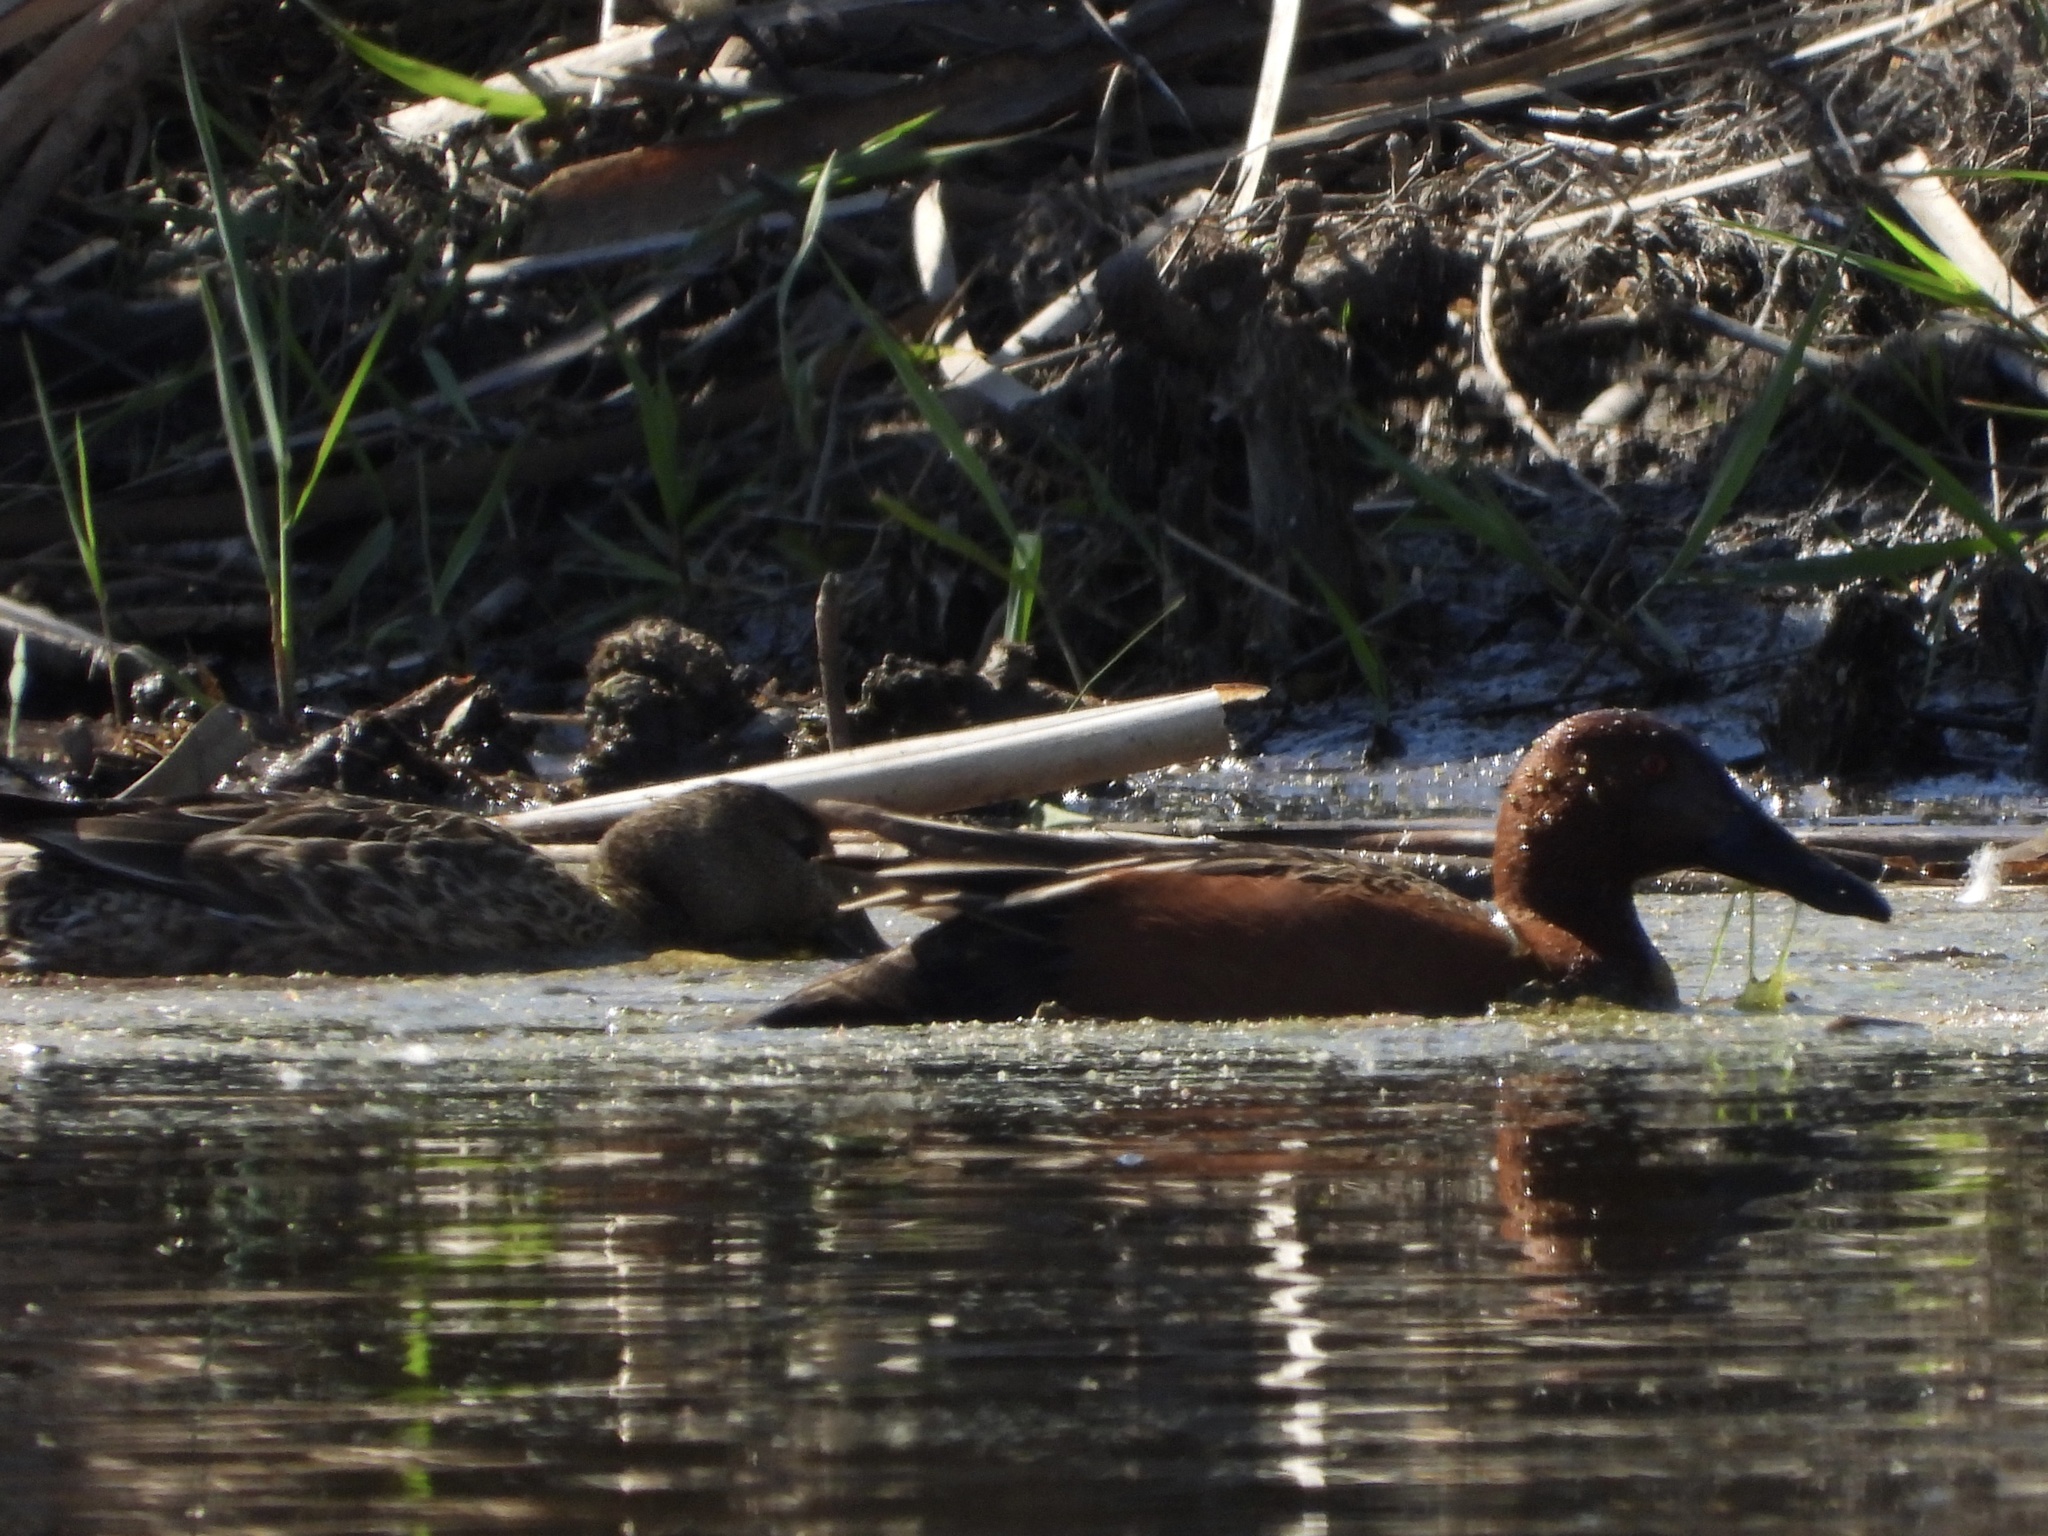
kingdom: Animalia
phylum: Chordata
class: Aves
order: Anseriformes
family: Anatidae
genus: Spatula
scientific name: Spatula cyanoptera
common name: Cinnamon teal
